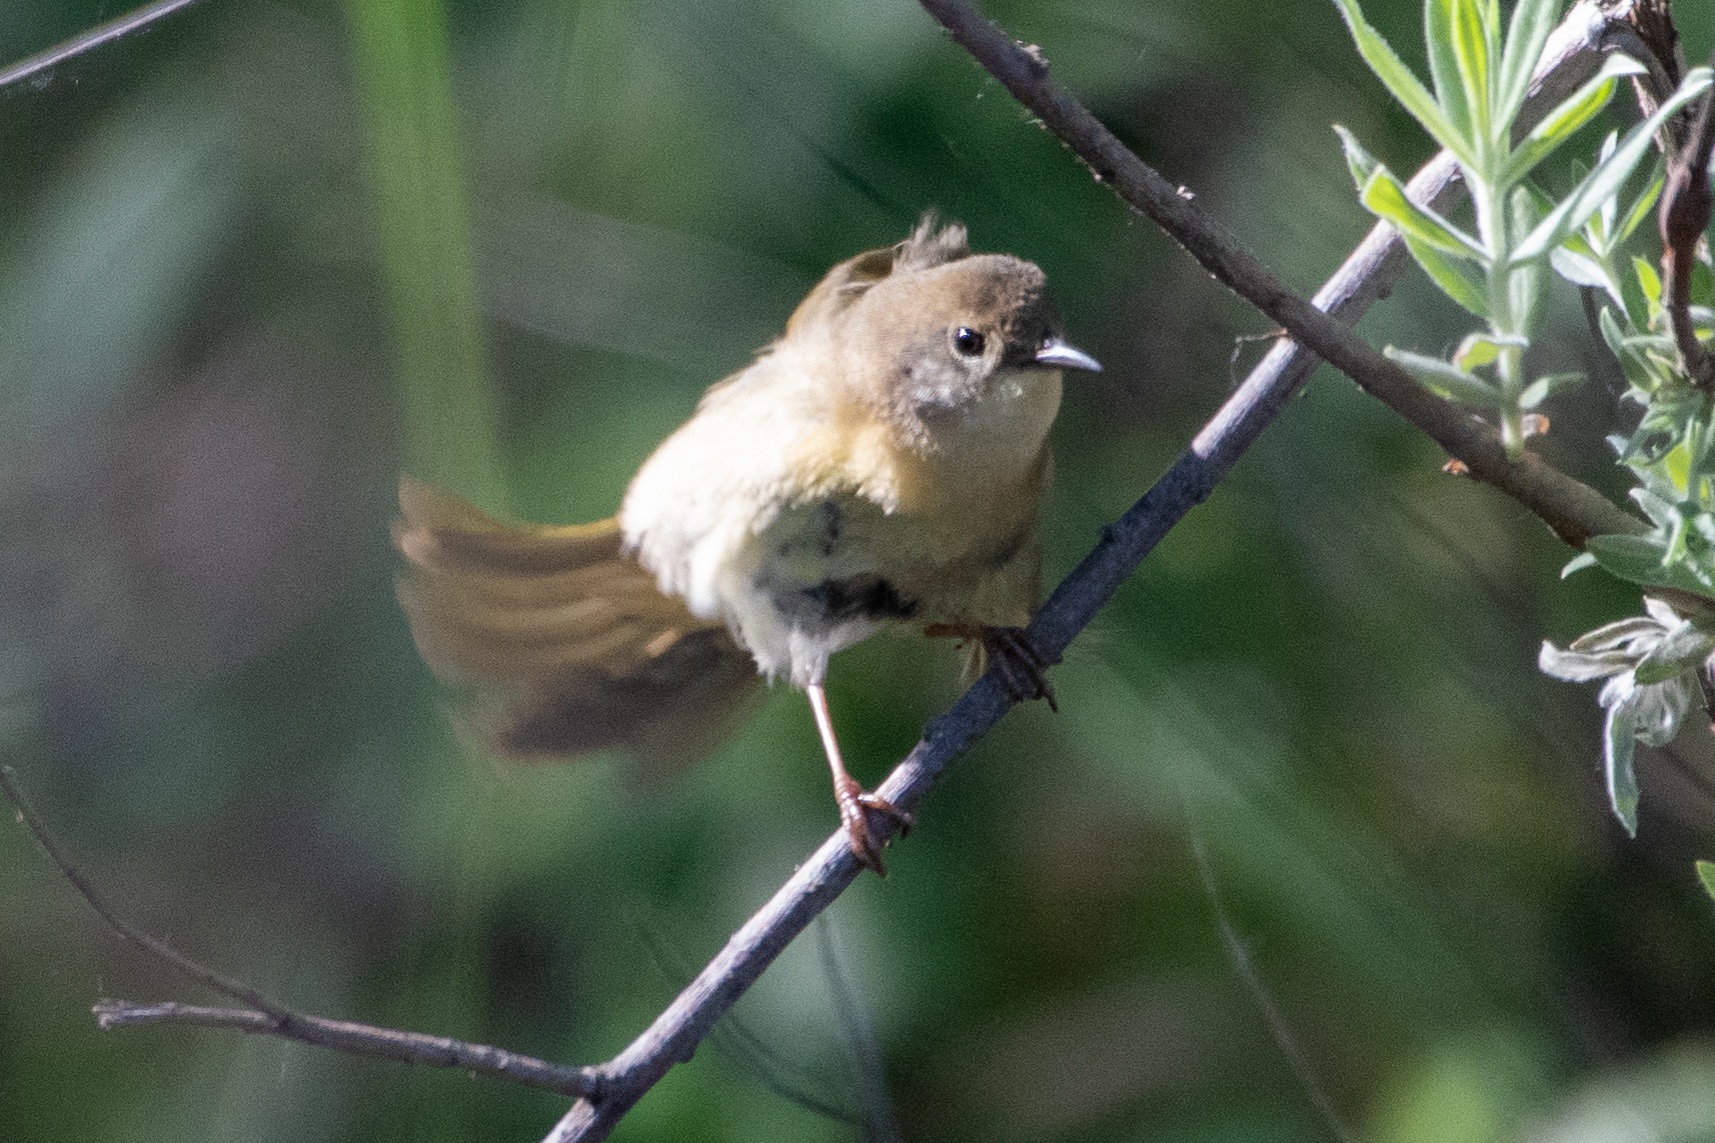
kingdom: Animalia
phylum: Chordata
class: Aves
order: Passeriformes
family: Parulidae
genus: Geothlypis
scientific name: Geothlypis trichas
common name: Common yellowthroat
